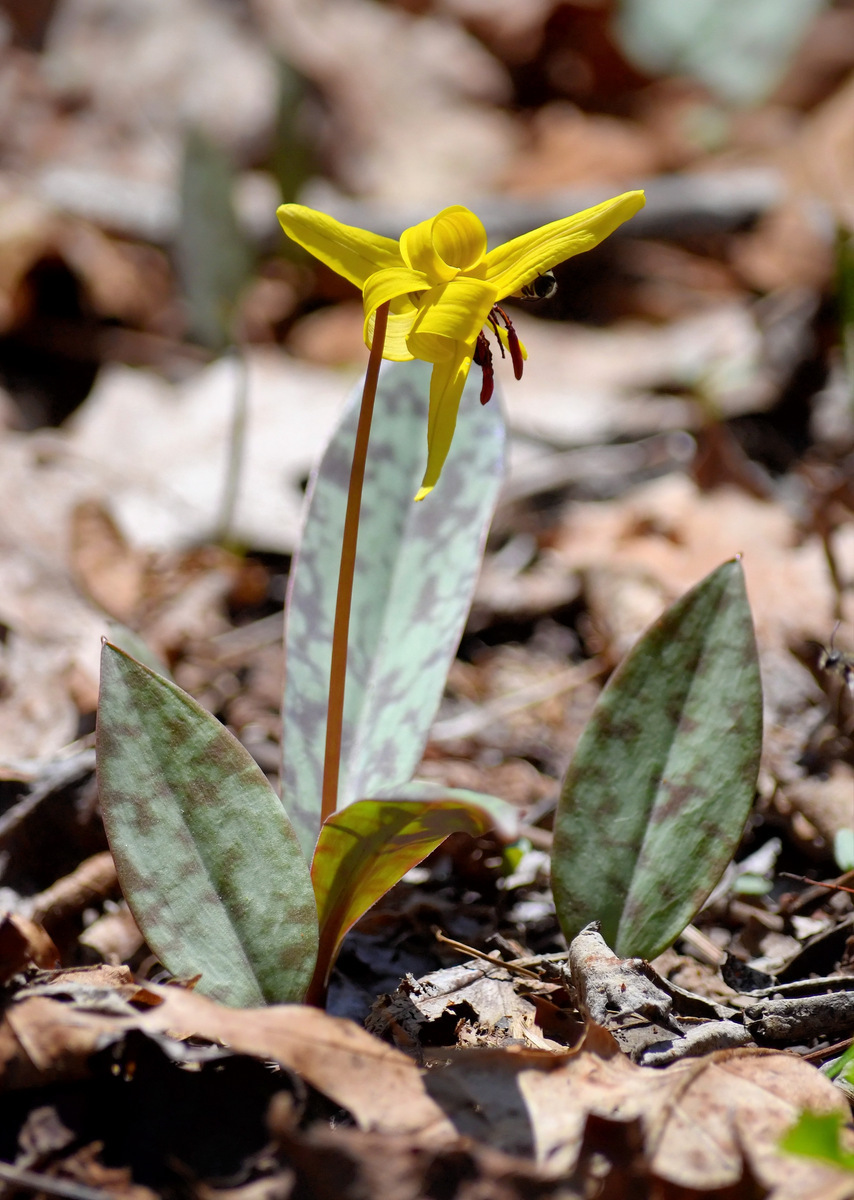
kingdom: Plantae
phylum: Tracheophyta
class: Liliopsida
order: Liliales
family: Liliaceae
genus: Erythronium
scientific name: Erythronium americanum
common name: Yellow adder's-tongue
